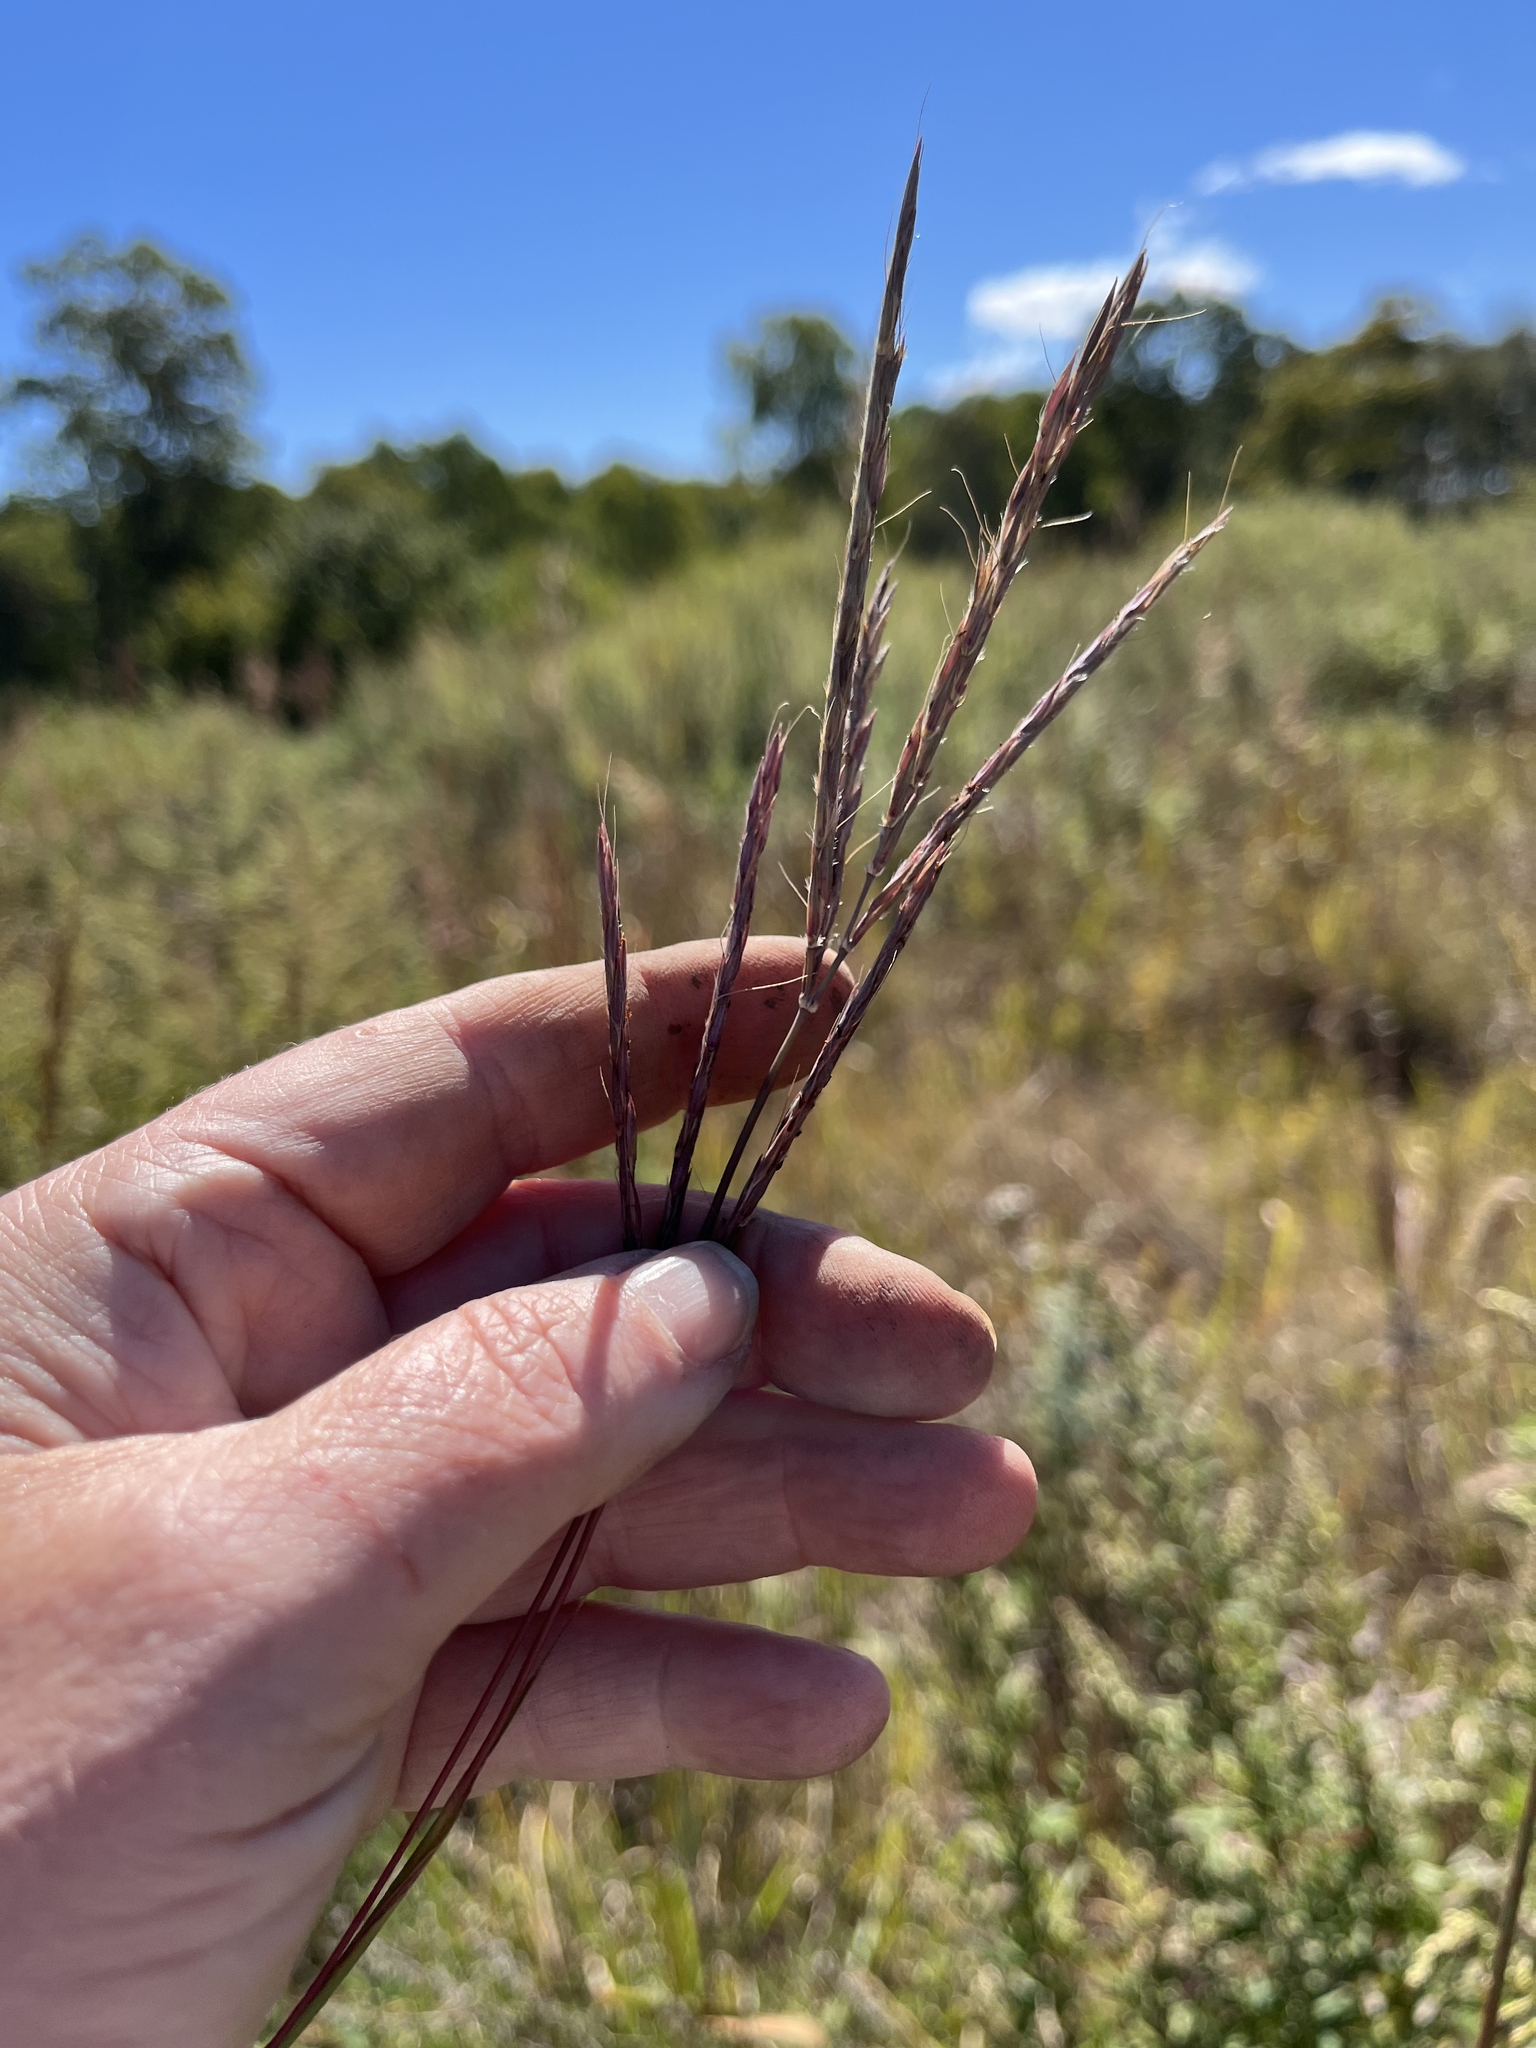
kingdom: Plantae
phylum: Tracheophyta
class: Liliopsida
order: Poales
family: Poaceae
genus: Andropogon
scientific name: Andropogon gerardi
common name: Big bluestem
